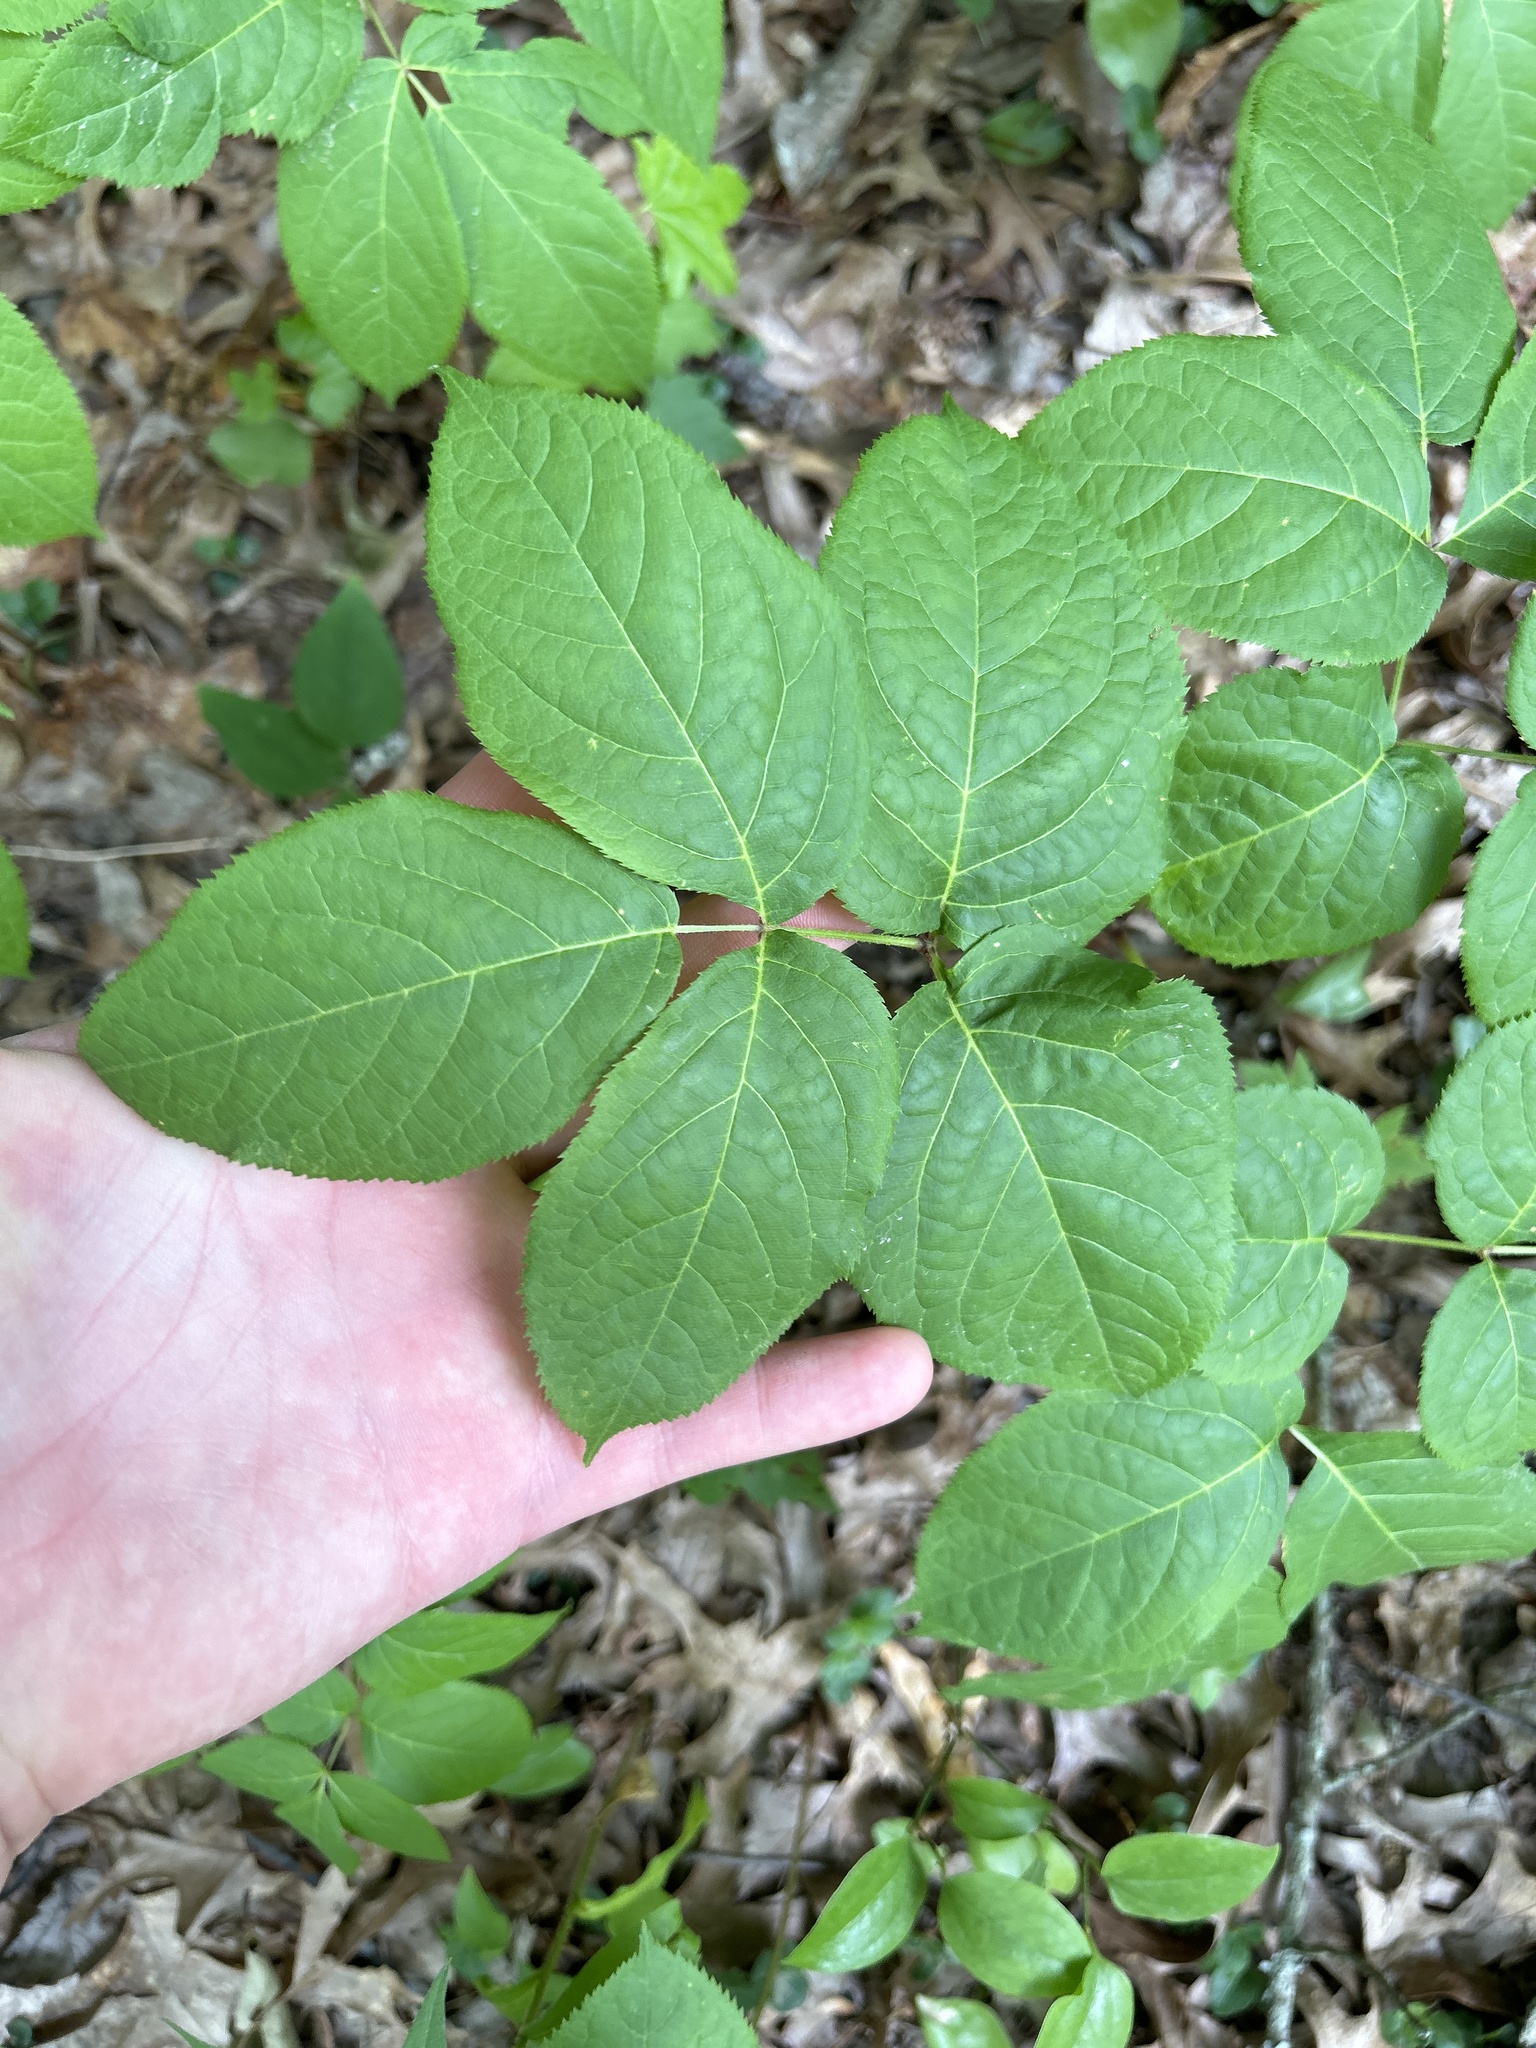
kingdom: Plantae
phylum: Tracheophyta
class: Magnoliopsida
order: Apiales
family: Araliaceae
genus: Aralia
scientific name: Aralia nudicaulis
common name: Wild sarsaparilla
